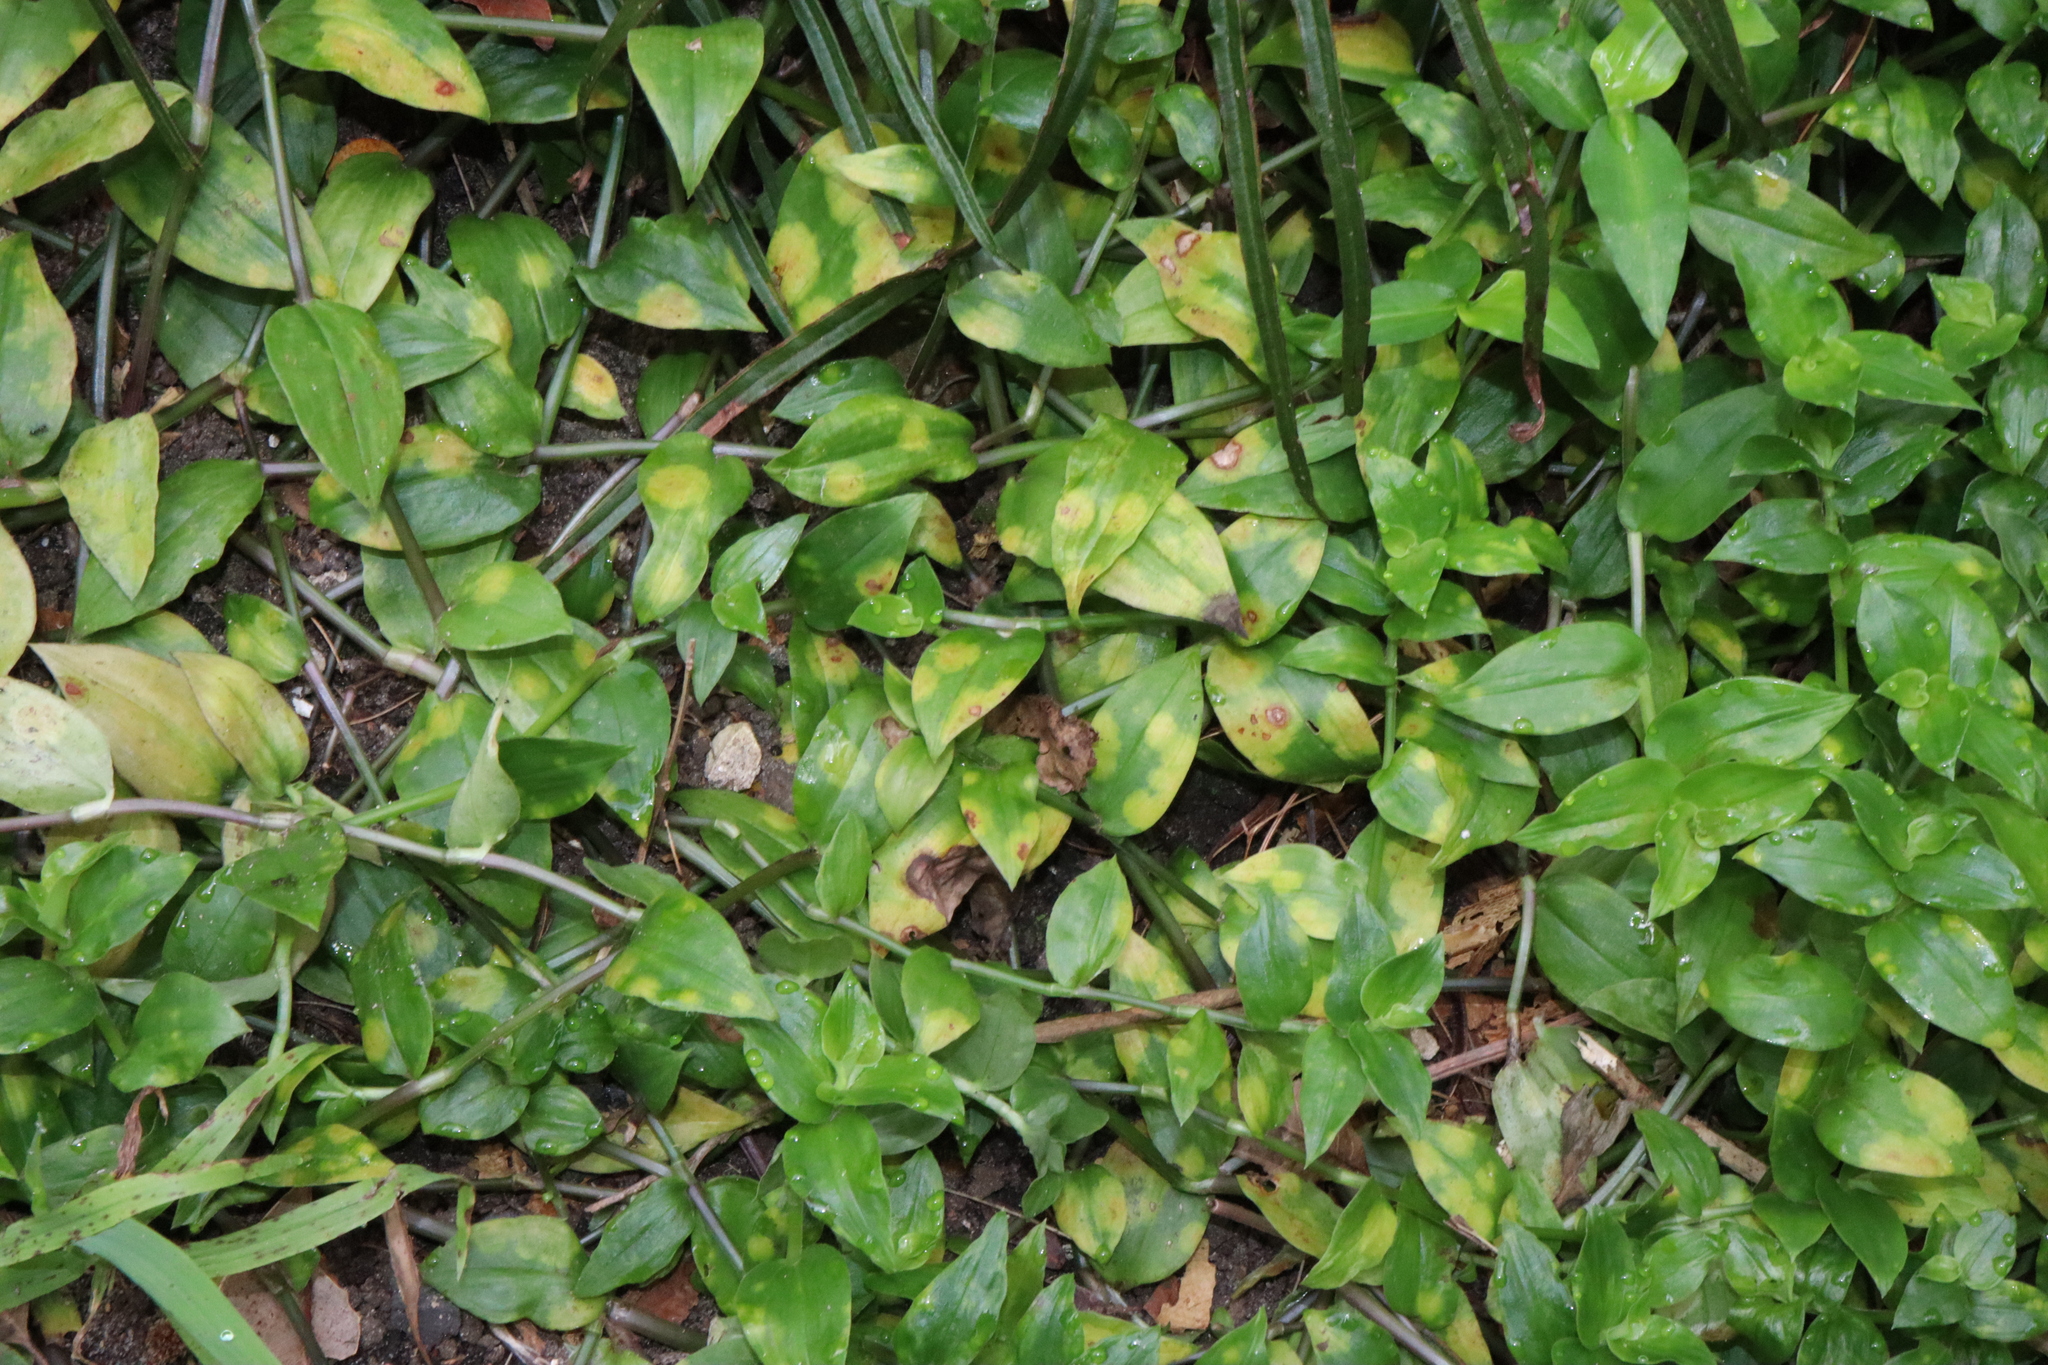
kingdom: Plantae
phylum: Tracheophyta
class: Liliopsida
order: Commelinales
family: Commelinaceae
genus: Tradescantia
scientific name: Tradescantia fluminensis
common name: Wandering-jew
